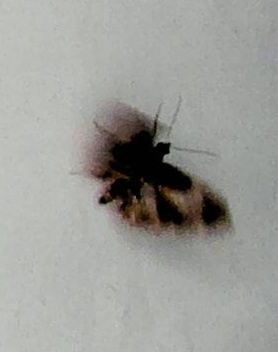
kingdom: Animalia
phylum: Arthropoda
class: Insecta
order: Lepidoptera
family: Geometridae
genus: Chloroclystis
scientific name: Chloroclystis approximata
